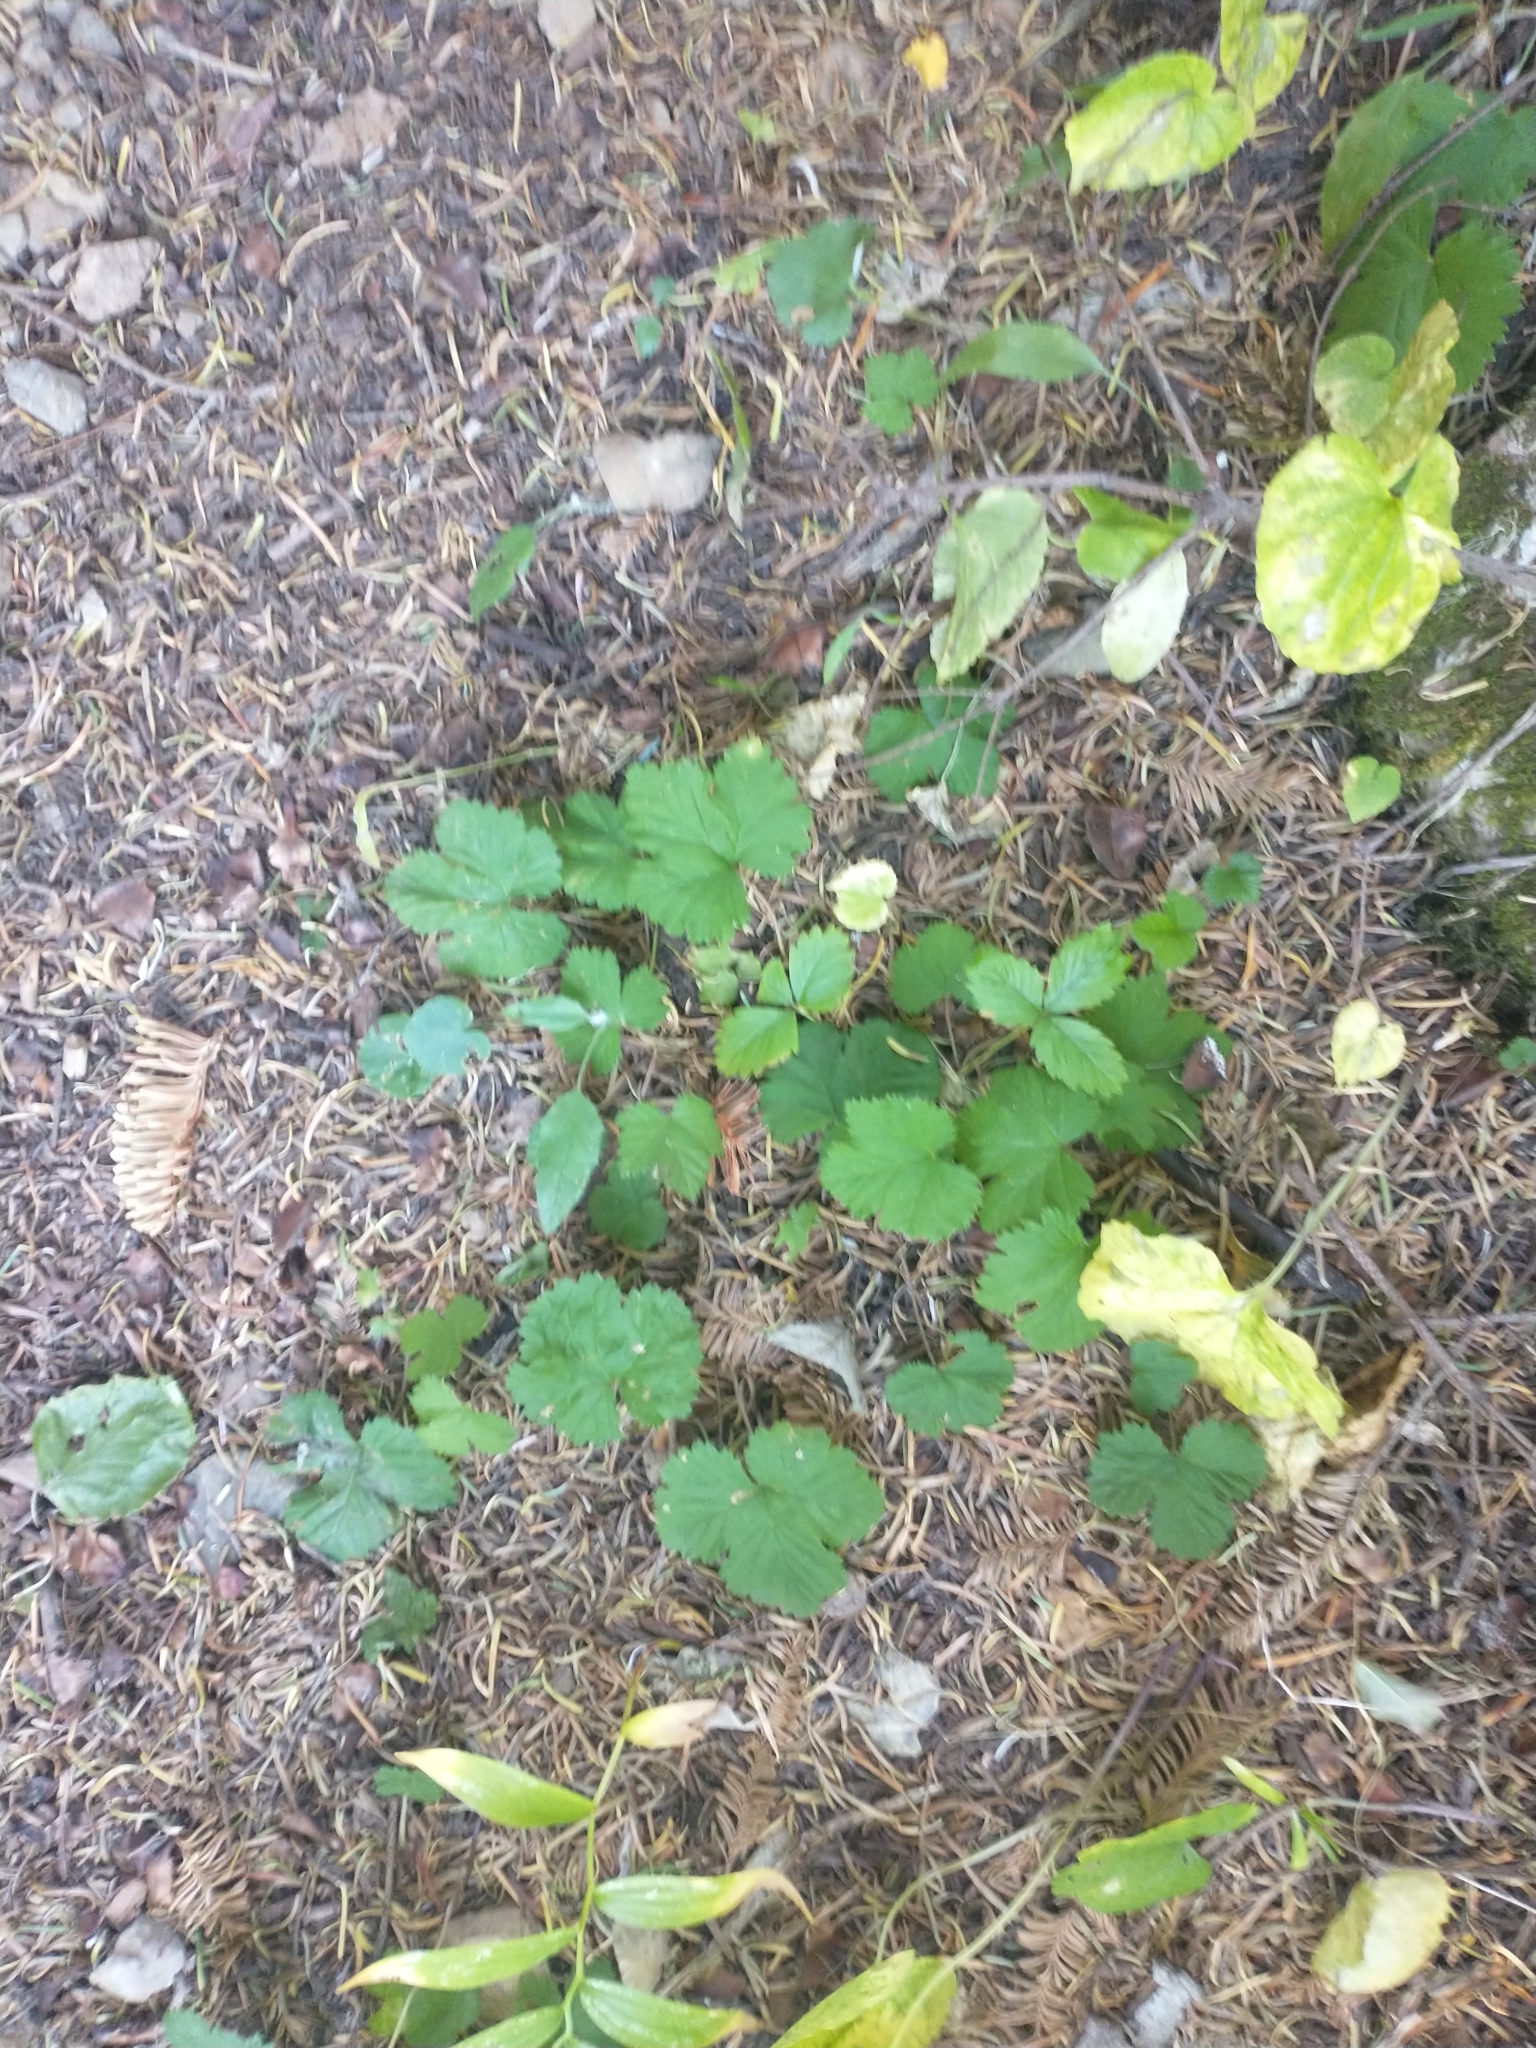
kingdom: Plantae
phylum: Tracheophyta
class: Magnoliopsida
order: Rosales
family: Rosaceae
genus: Rubus
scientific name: Rubus lasiococcus
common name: Dwarf bramble
